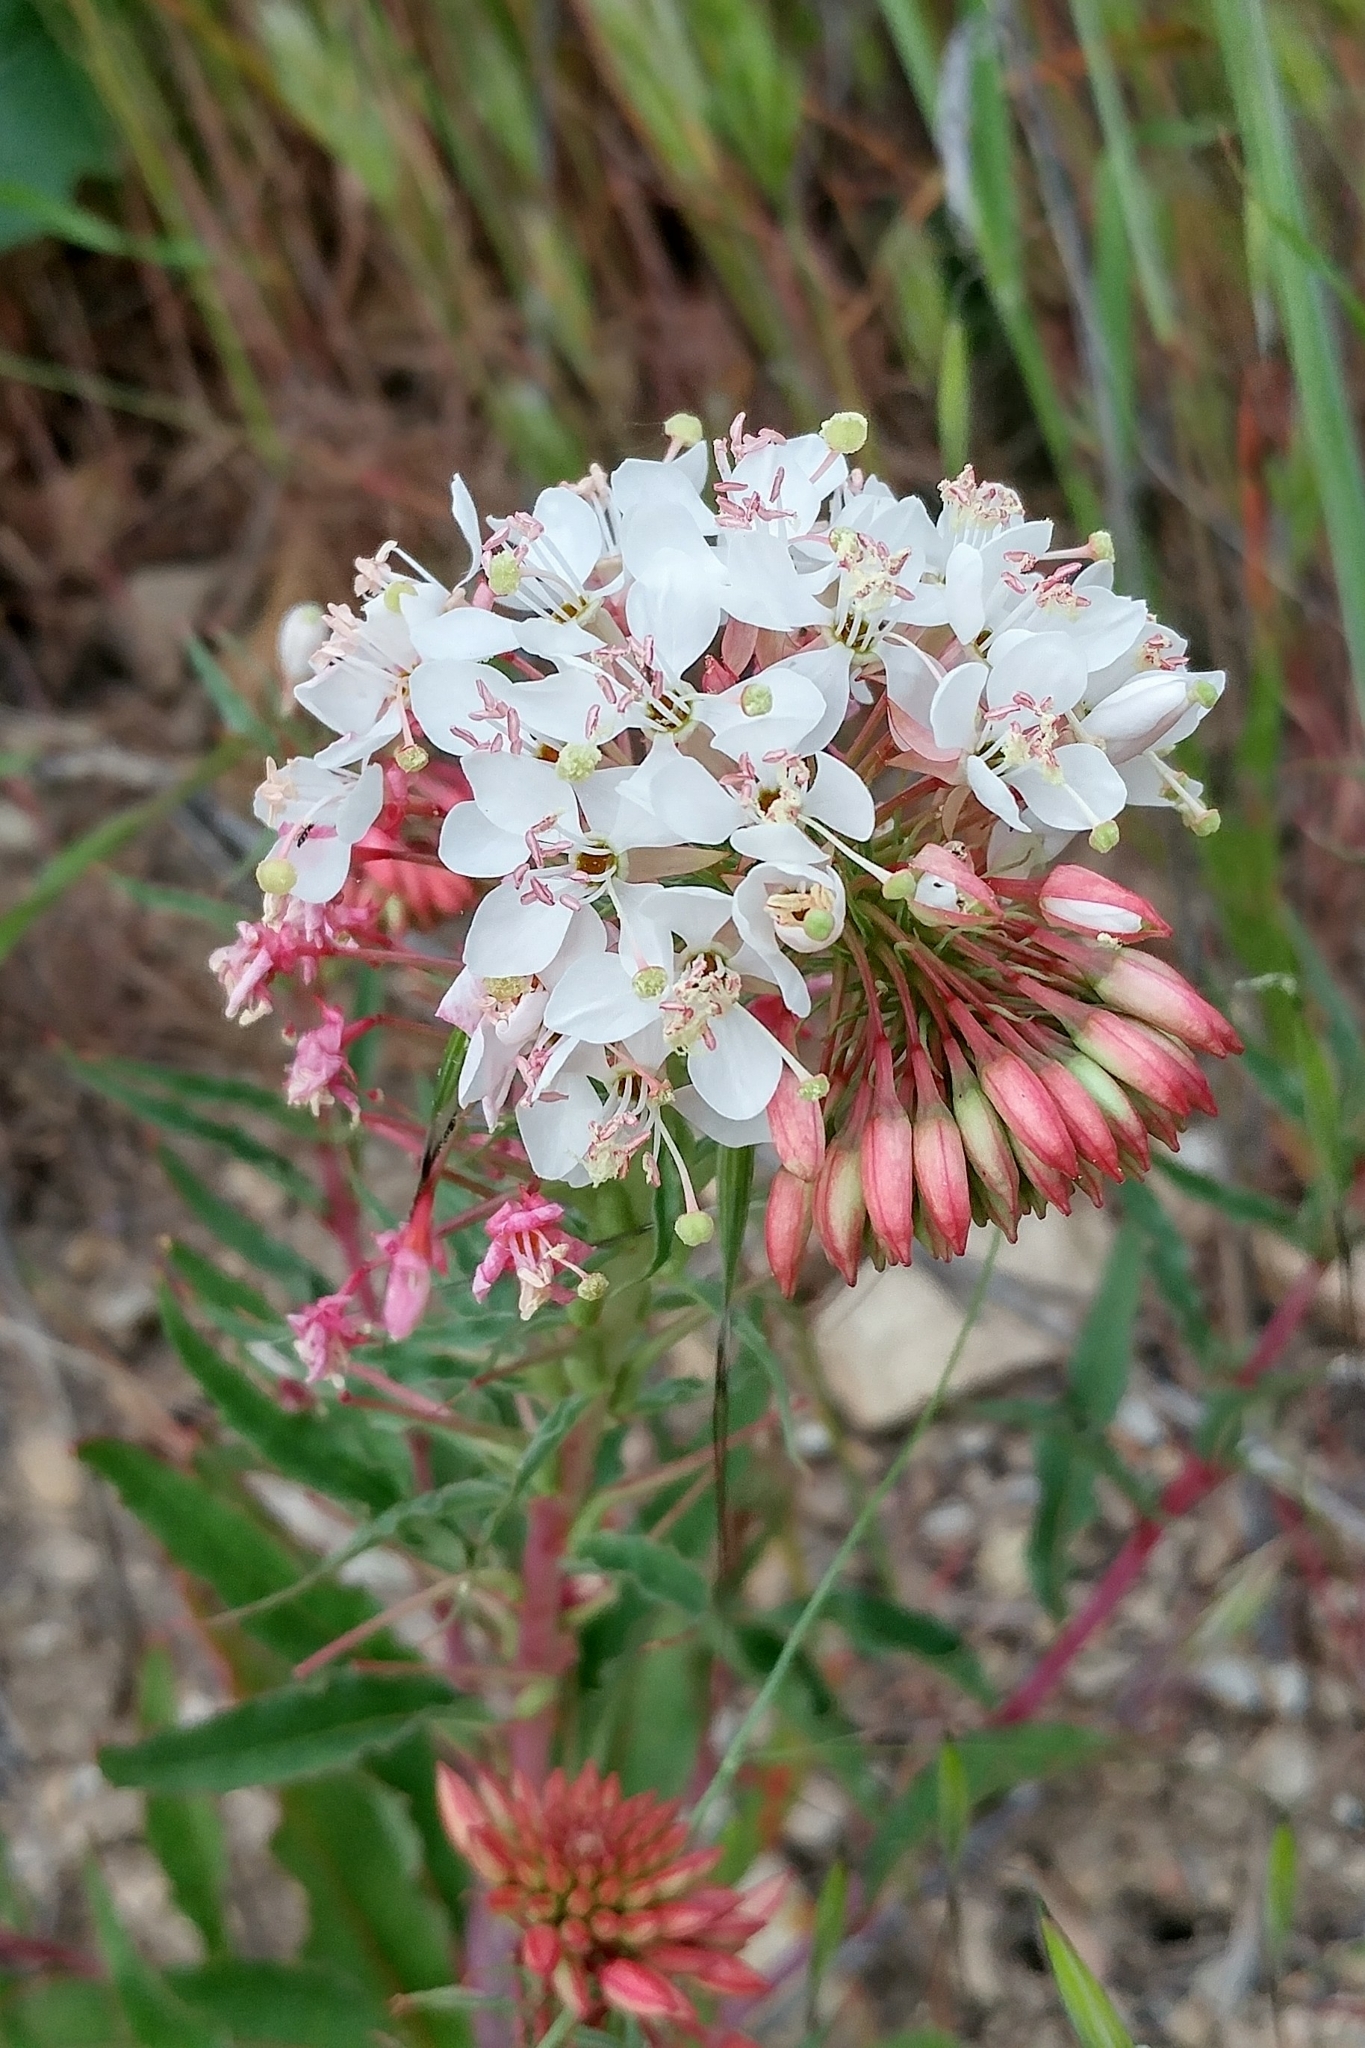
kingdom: Plantae
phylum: Tracheophyta
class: Magnoliopsida
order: Myrtales
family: Onagraceae
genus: Eremothera
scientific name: Eremothera boothii
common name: Booth's evening primrose
